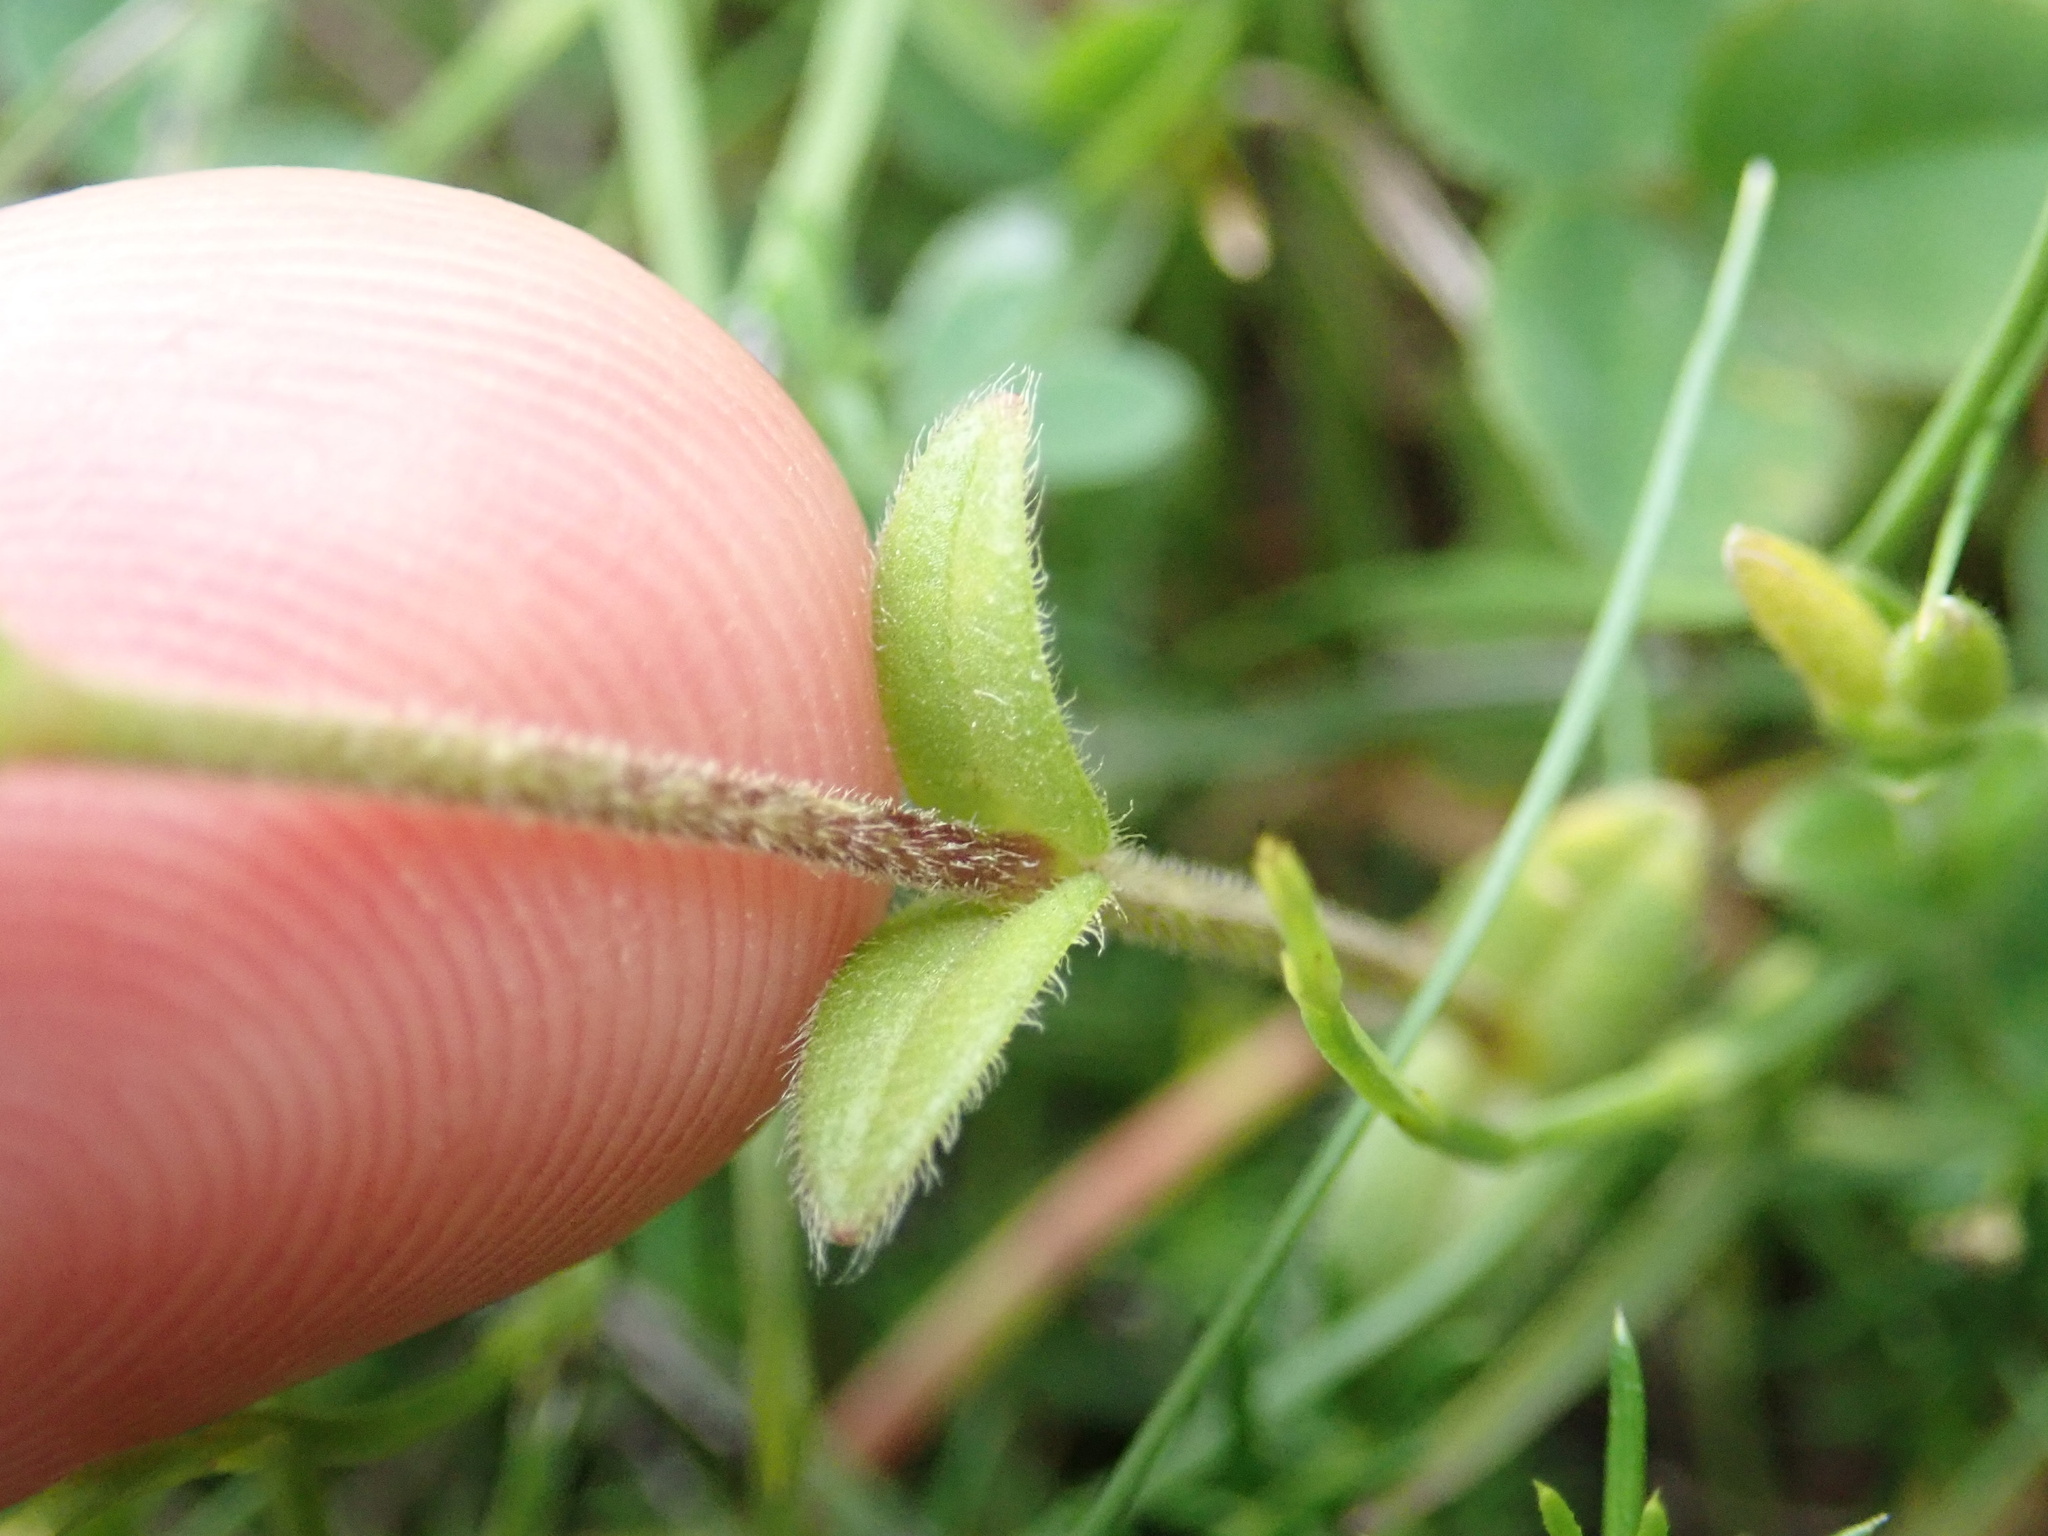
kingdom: Plantae
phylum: Tracheophyta
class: Magnoliopsida
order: Caryophyllales
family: Caryophyllaceae
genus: Cerastium
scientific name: Cerastium fontanum
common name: Common mouse-ear
